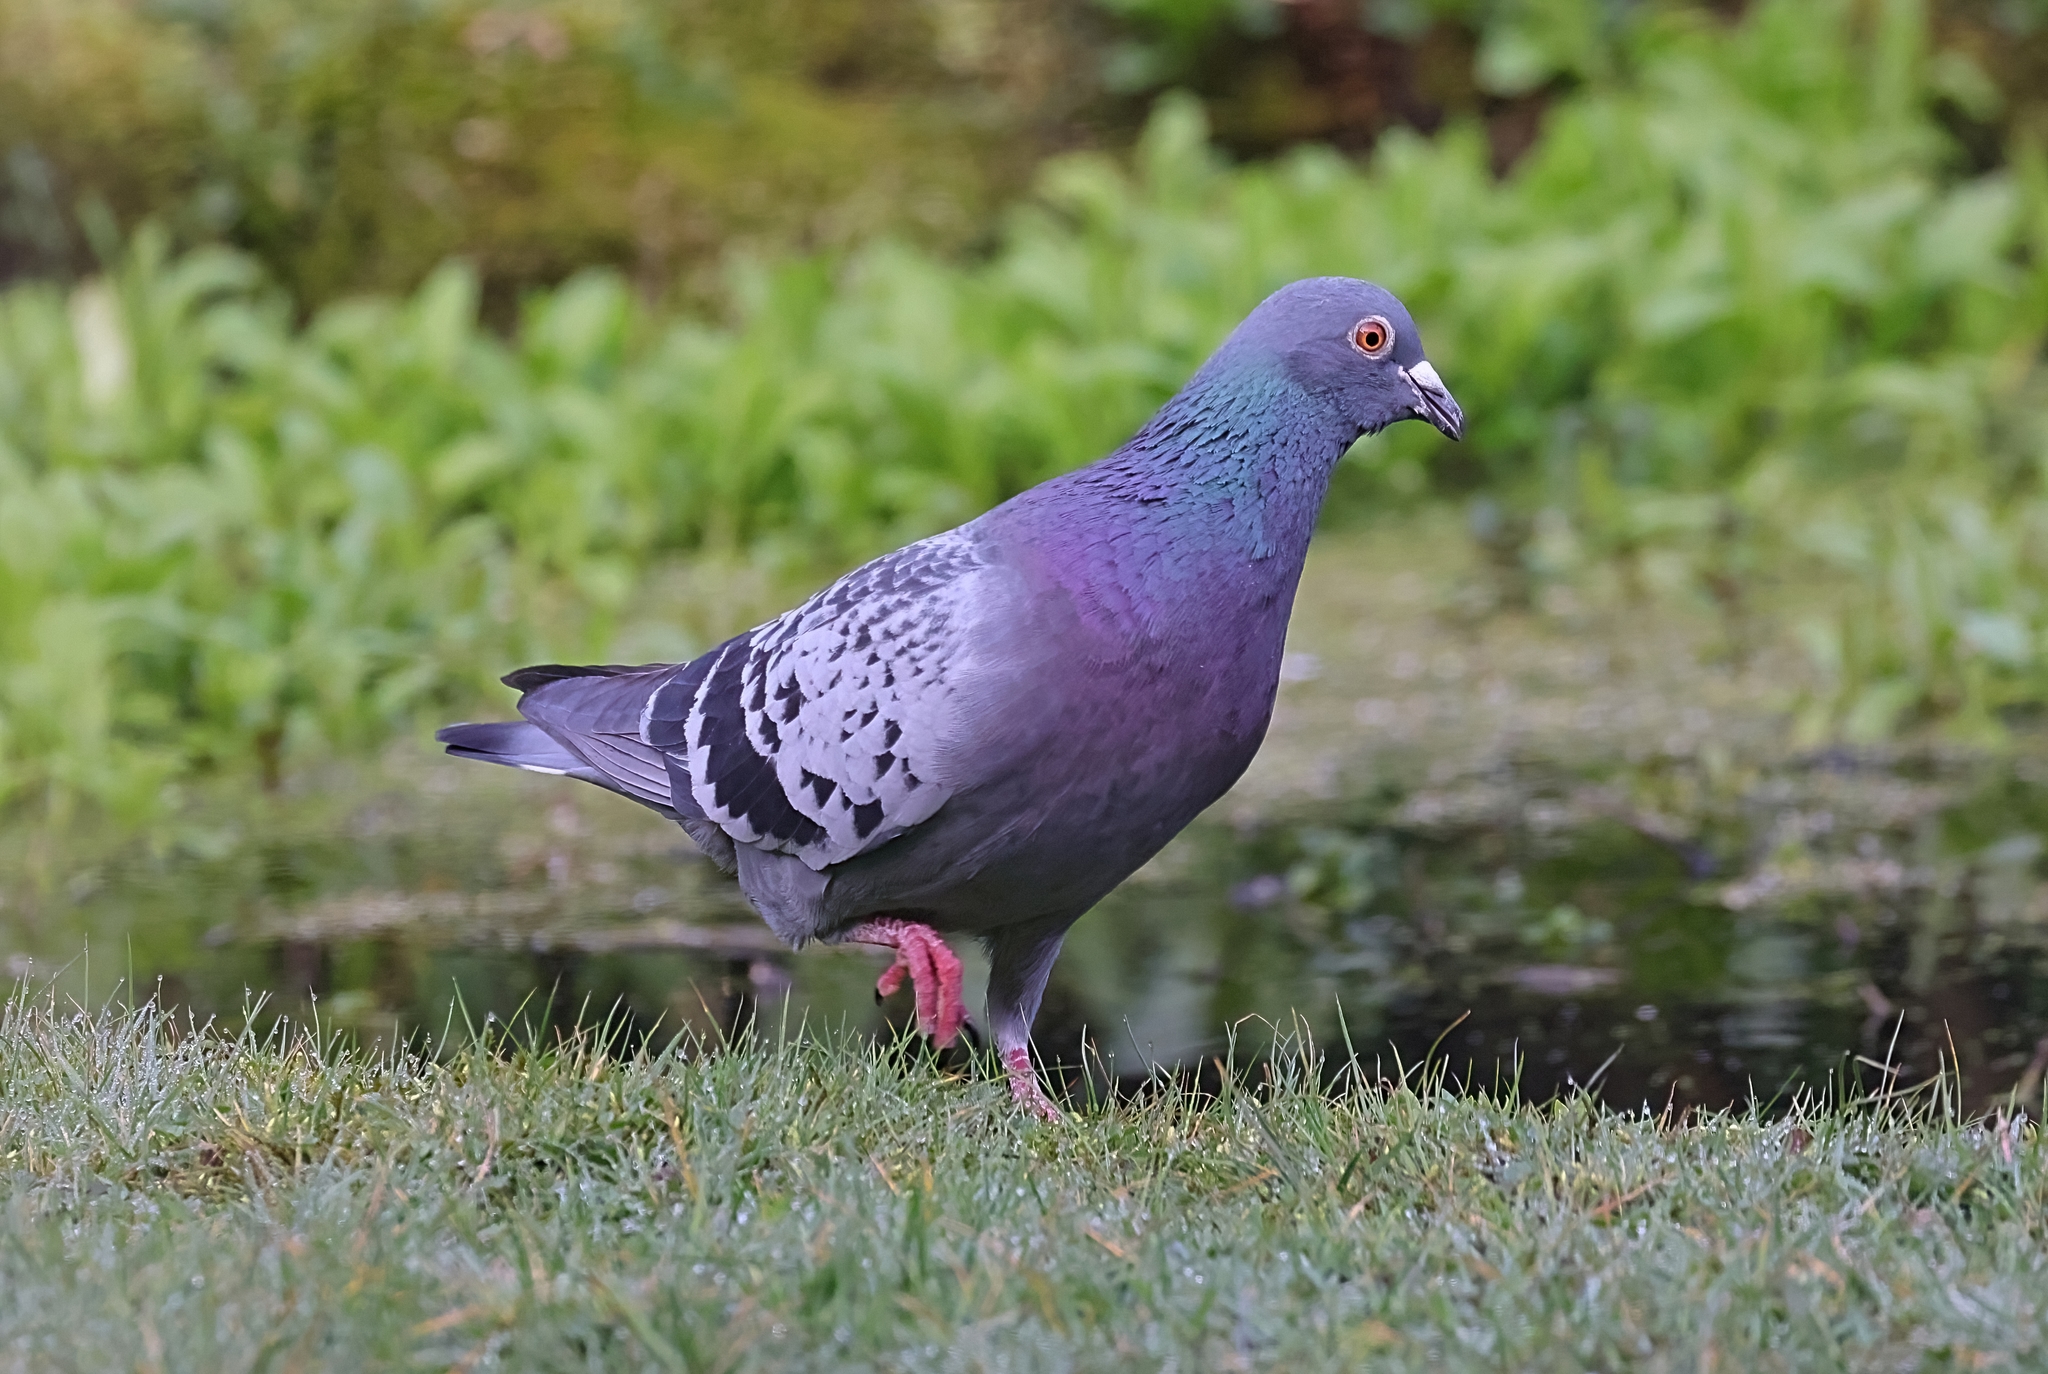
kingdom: Animalia
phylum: Chordata
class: Aves
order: Columbiformes
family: Columbidae
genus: Columba
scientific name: Columba livia
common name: Rock pigeon
